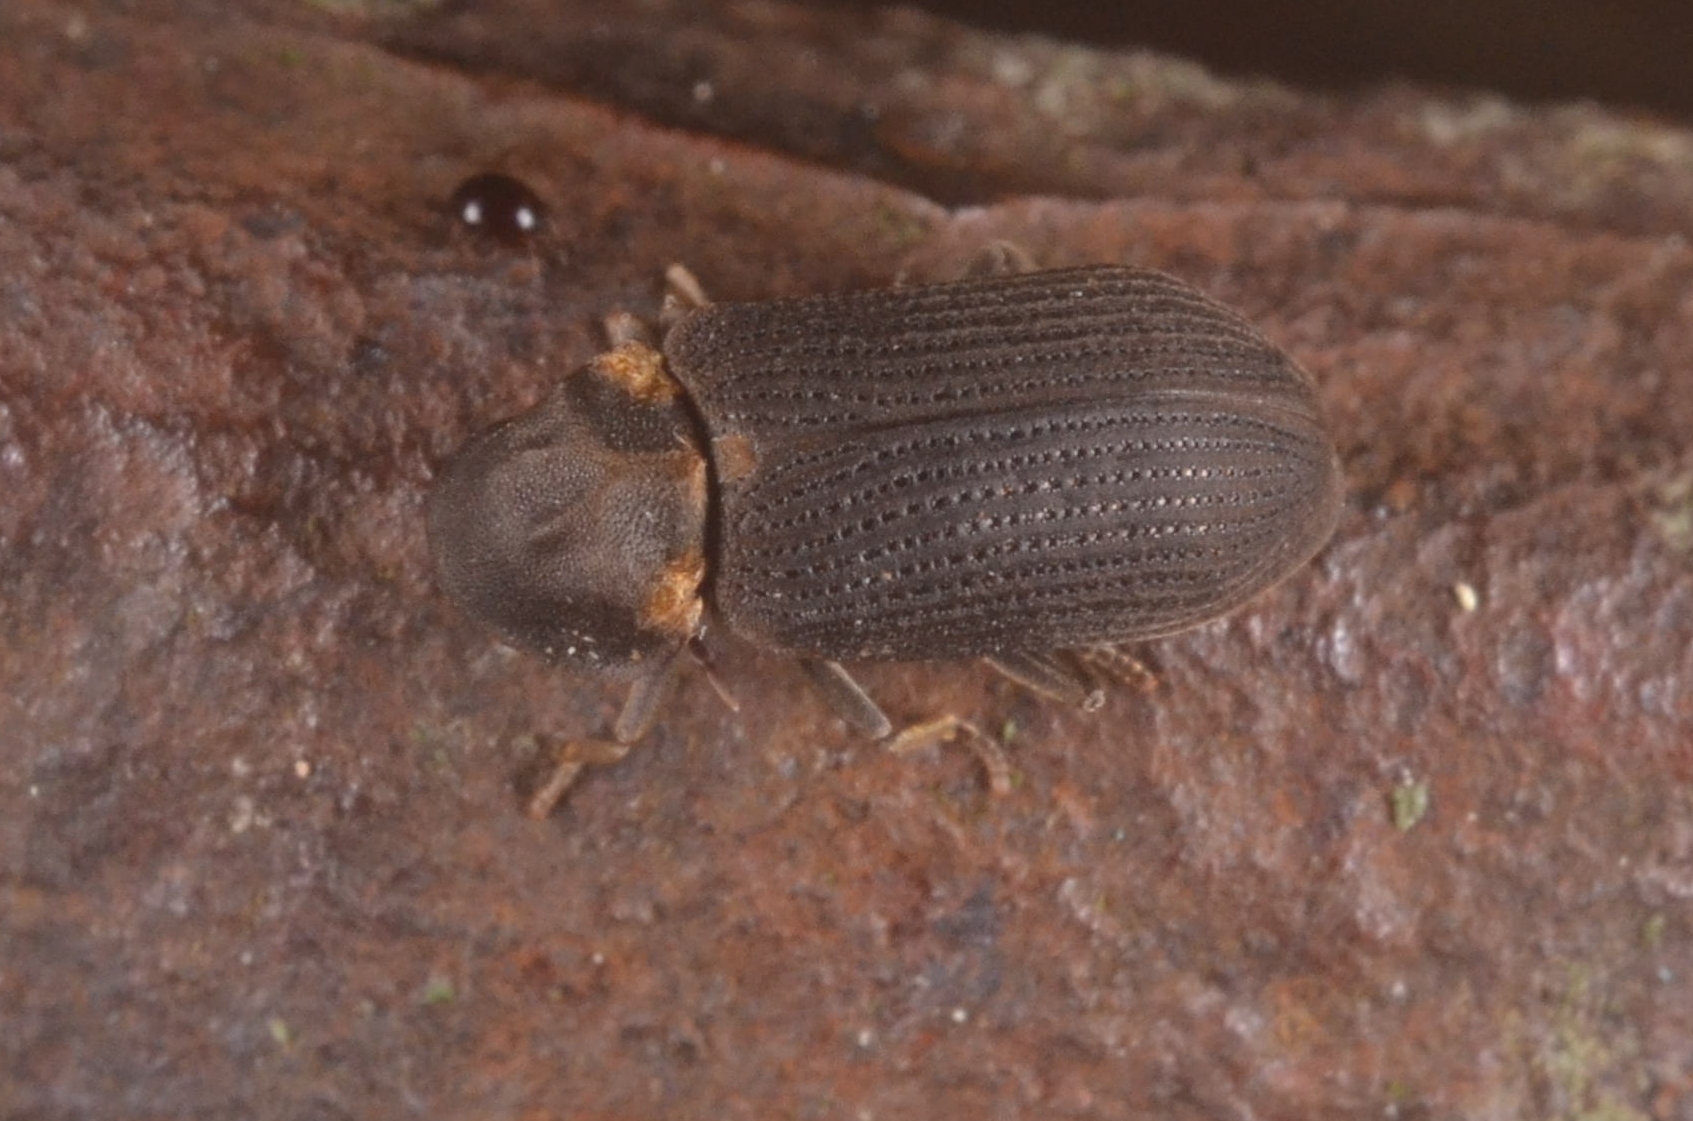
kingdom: Animalia
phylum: Arthropoda
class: Insecta
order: Coleoptera
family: Anobiidae
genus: Hadrobregmus
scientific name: Hadrobregmus pertinax
